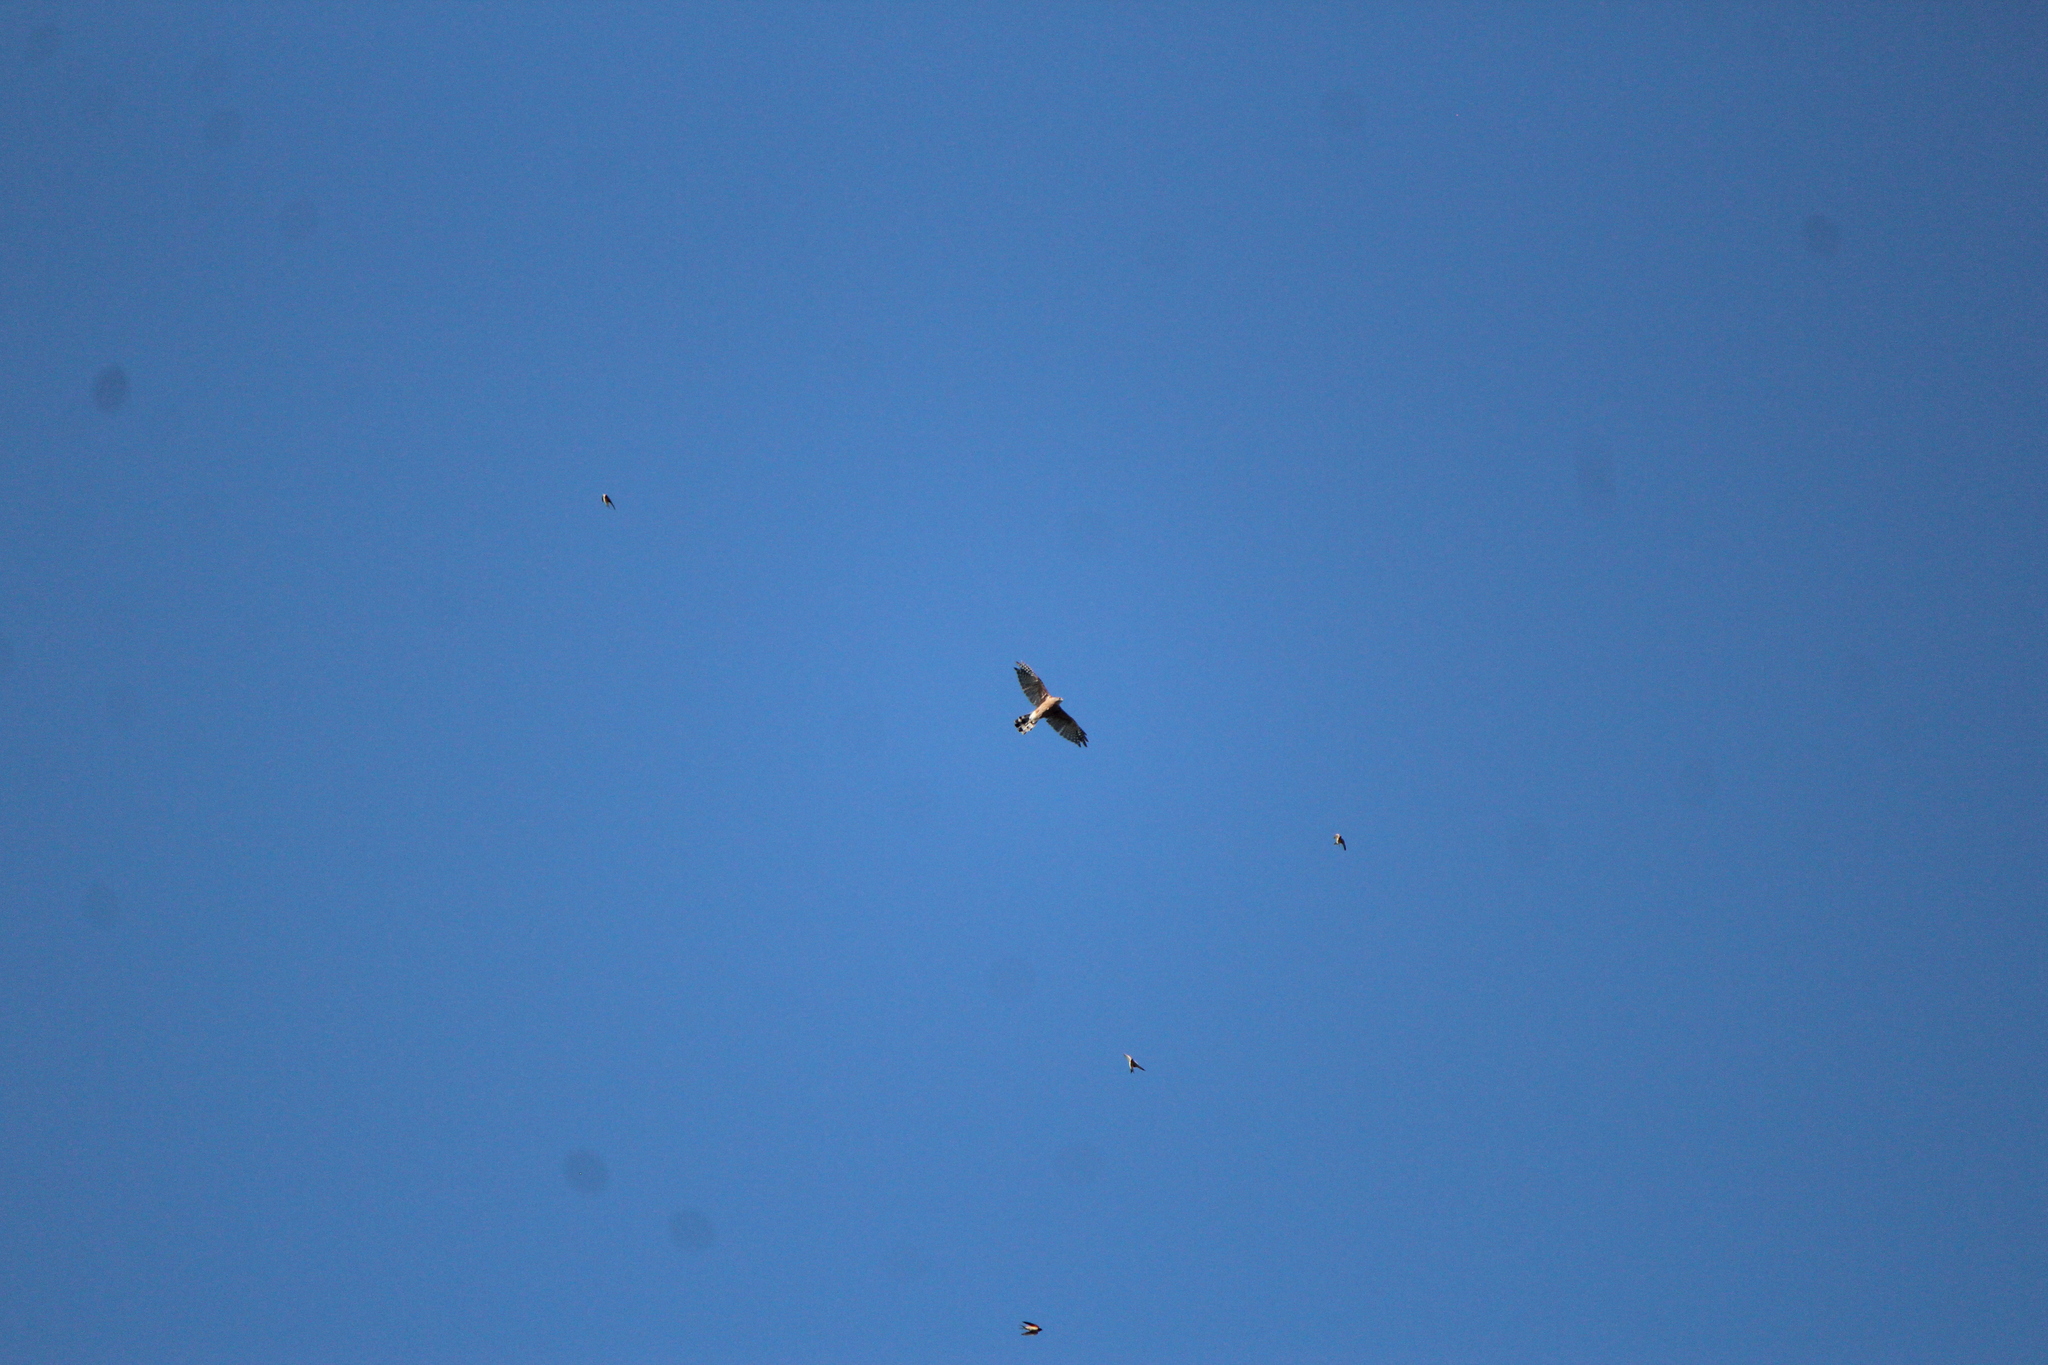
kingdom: Animalia
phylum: Chordata
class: Aves
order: Accipitriformes
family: Accipitridae
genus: Accipiter
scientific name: Accipiter cooperii
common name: Cooper's hawk
